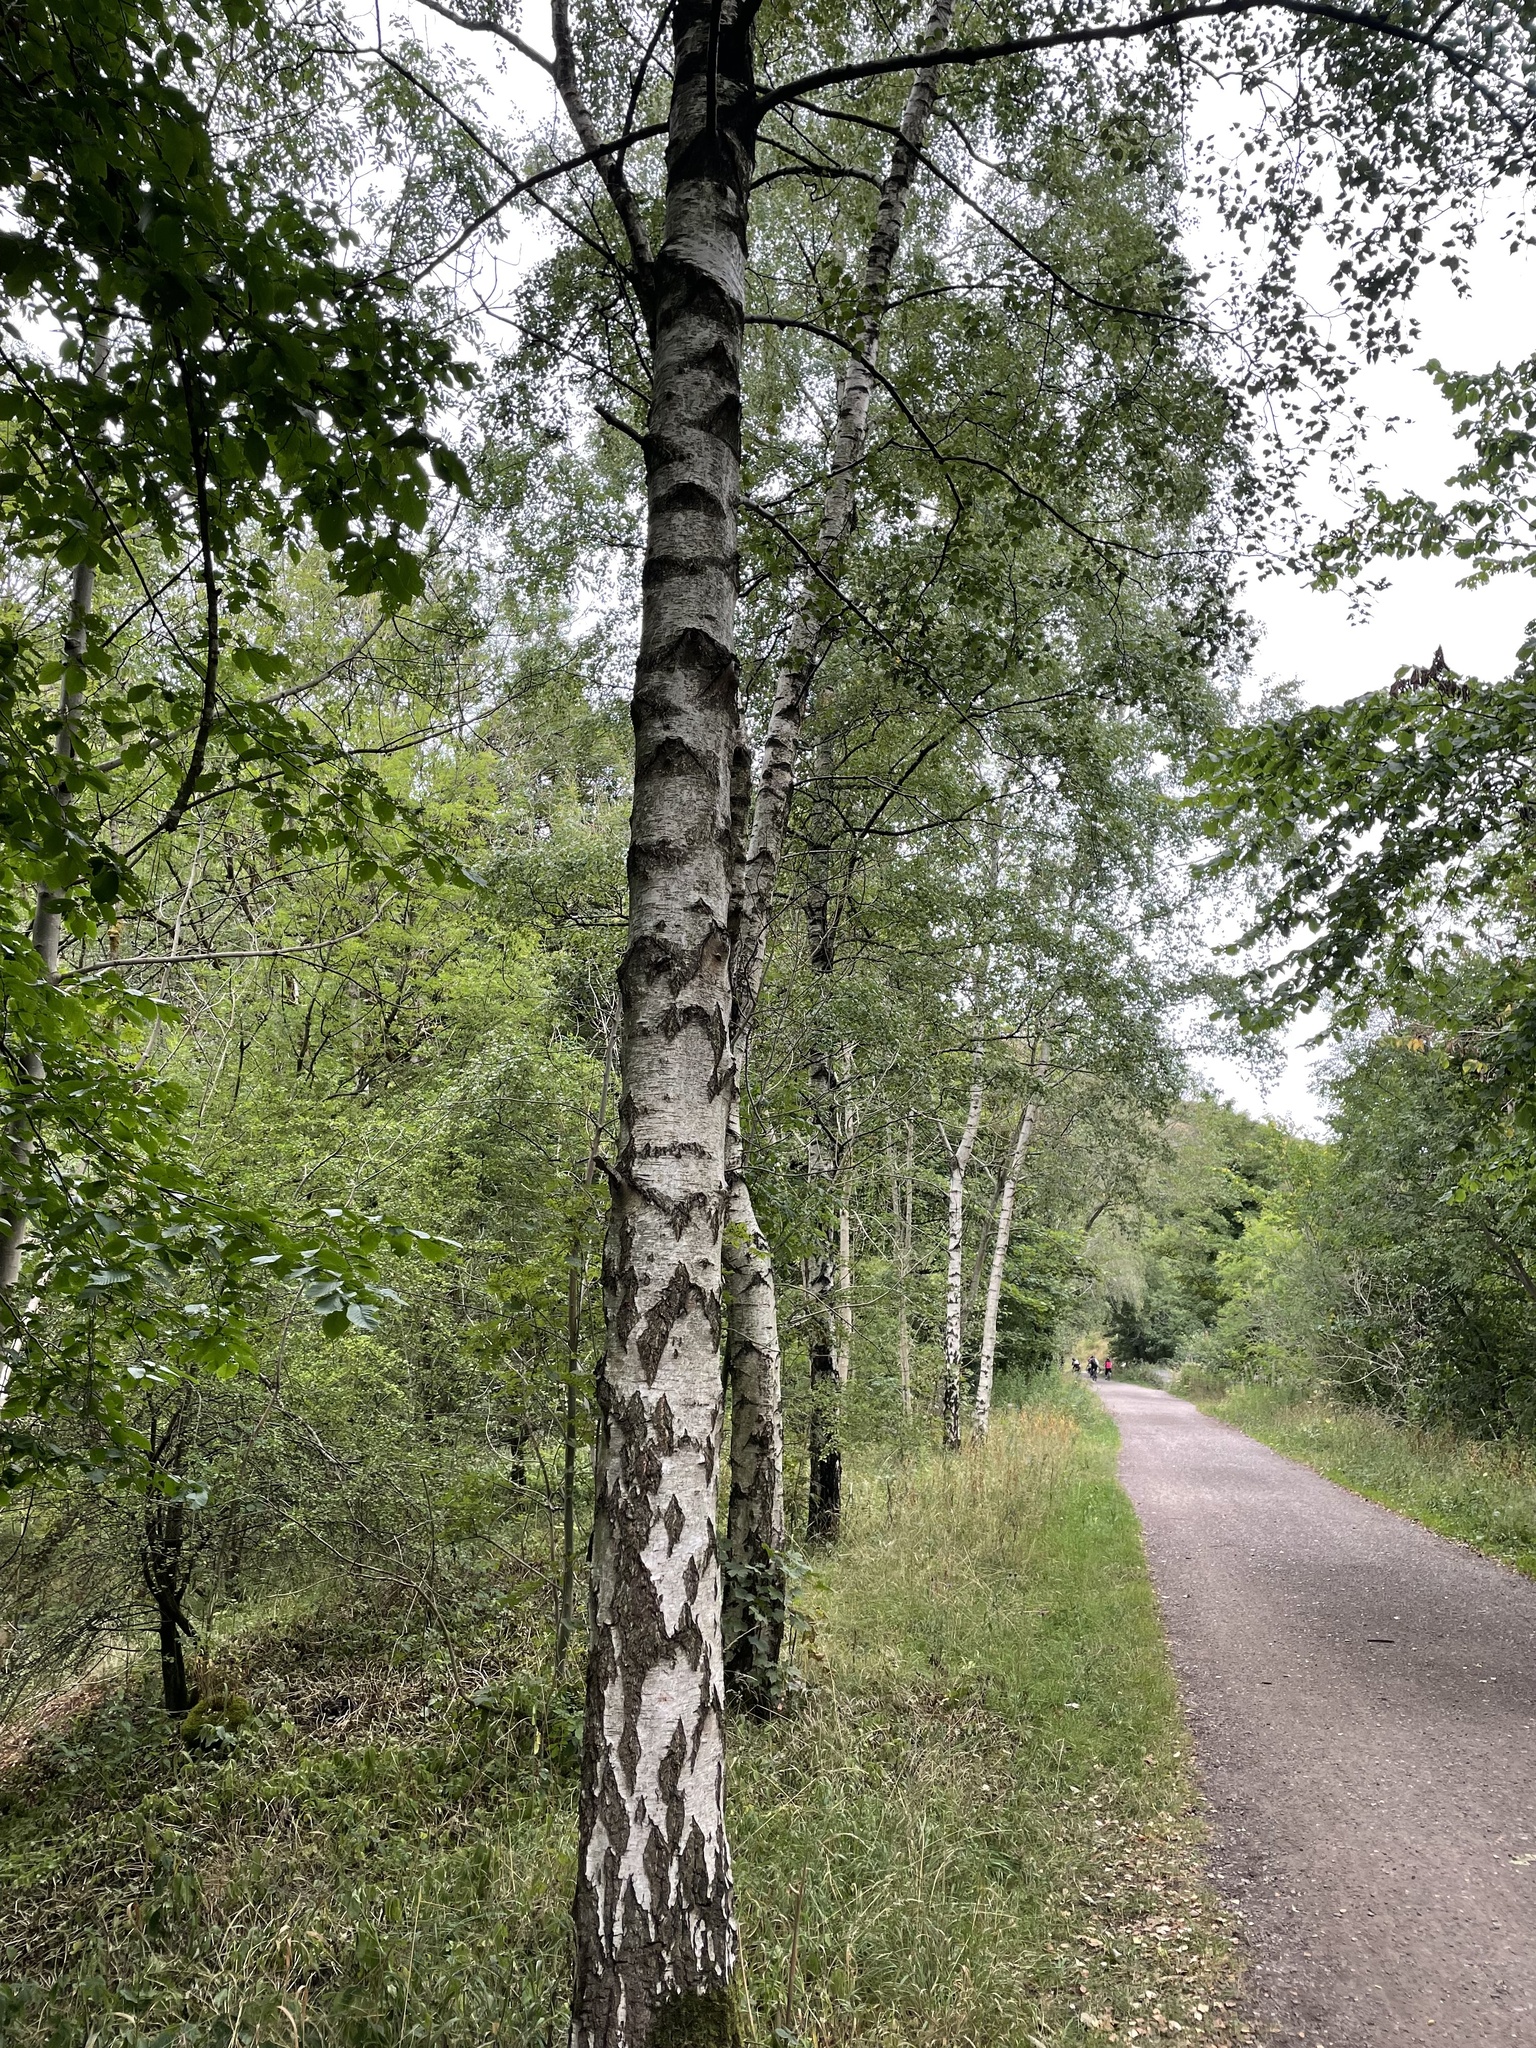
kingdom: Plantae
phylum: Tracheophyta
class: Magnoliopsida
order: Fagales
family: Betulaceae
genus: Betula
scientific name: Betula pendula
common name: Silver birch
